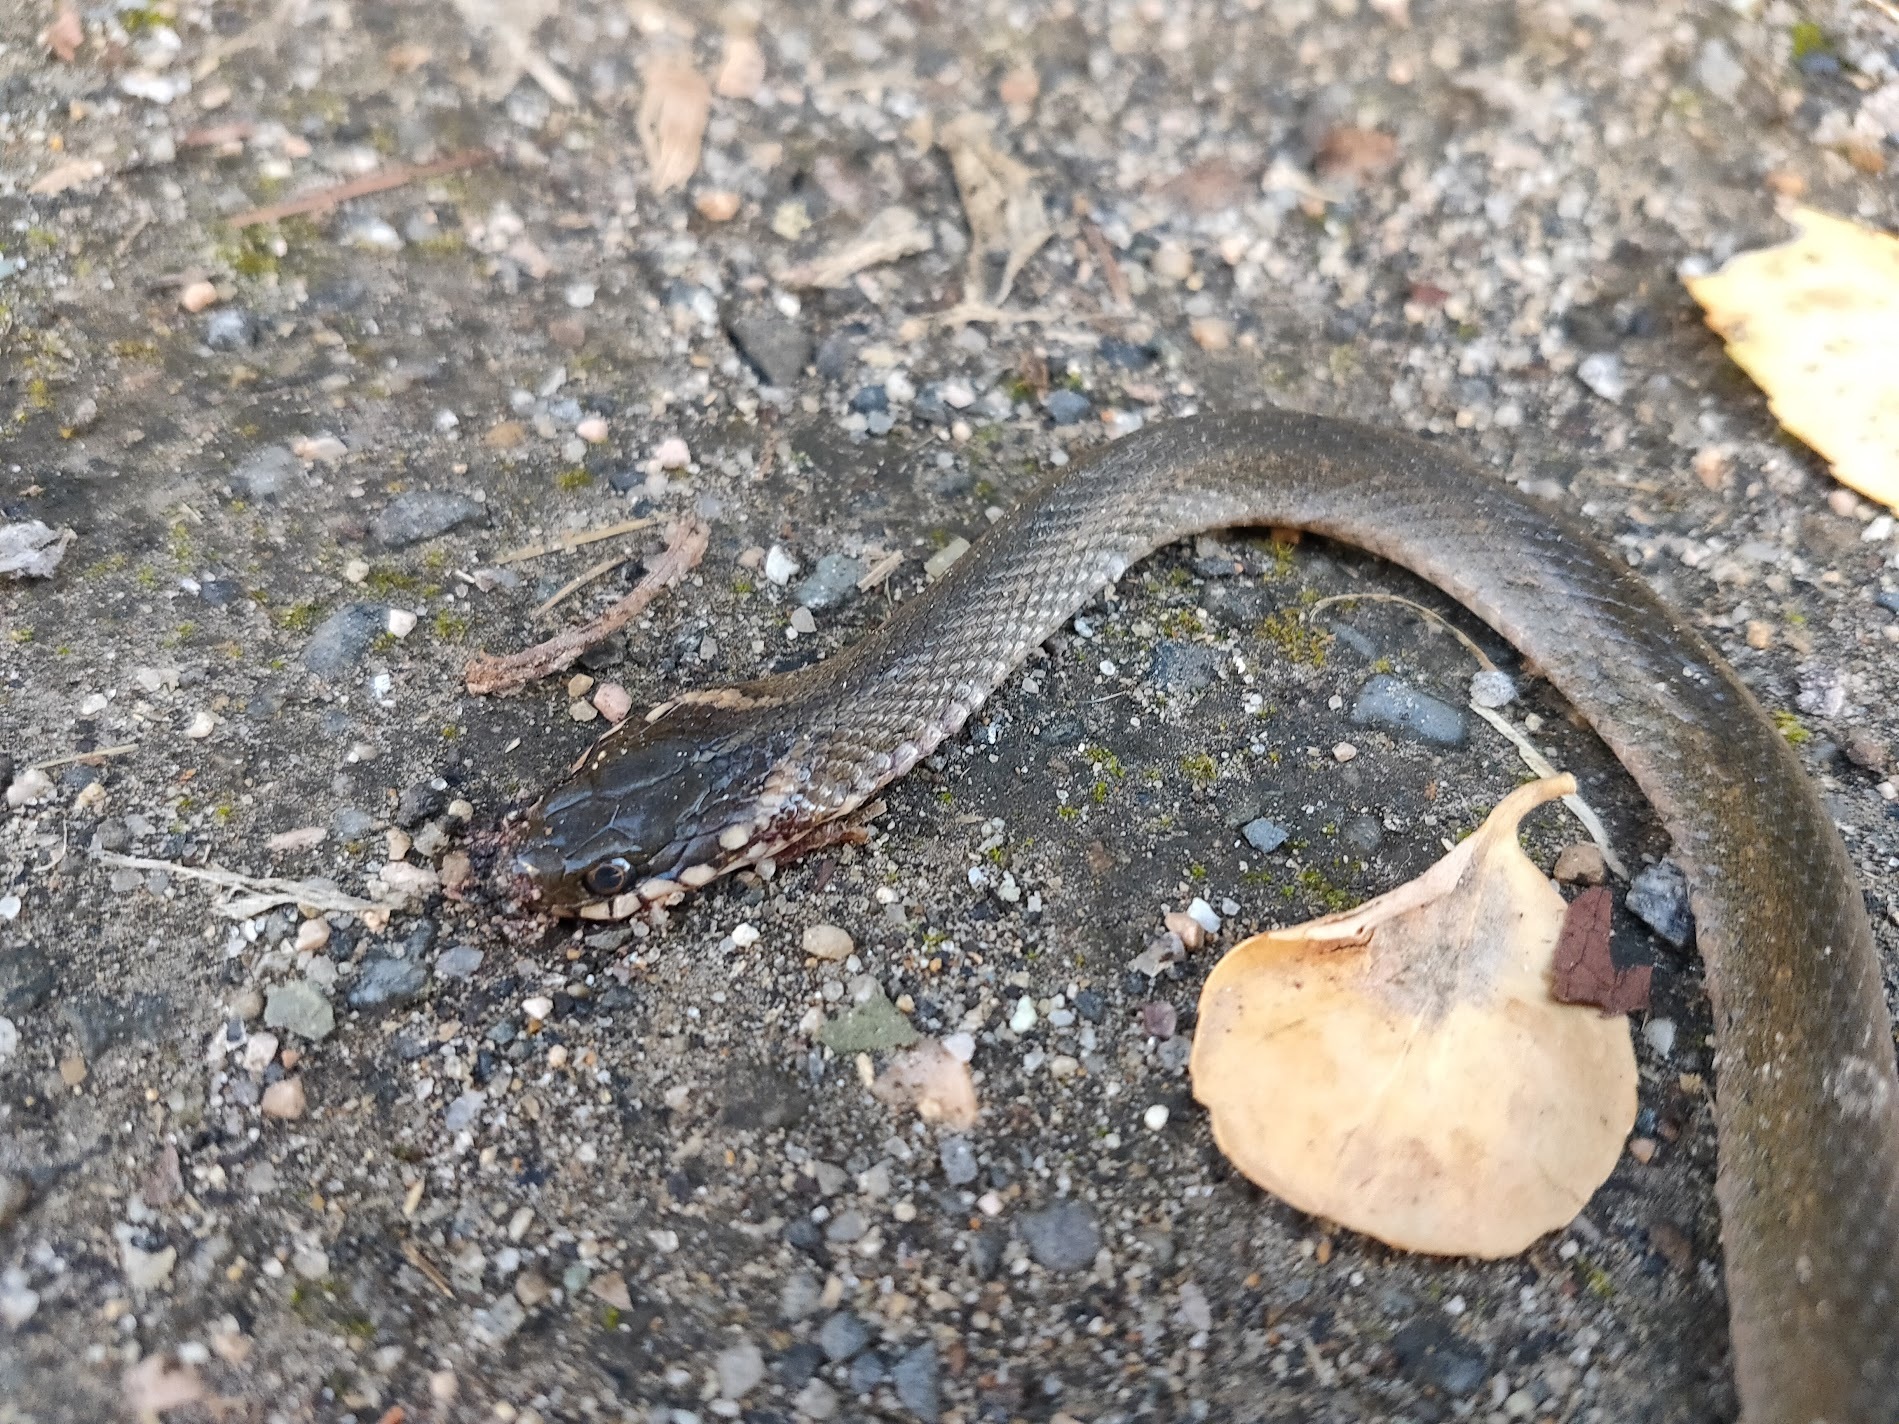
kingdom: Animalia
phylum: Chordata
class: Squamata
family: Colubridae
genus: Hebius
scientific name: Hebius vibakari
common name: Japanese keelback
